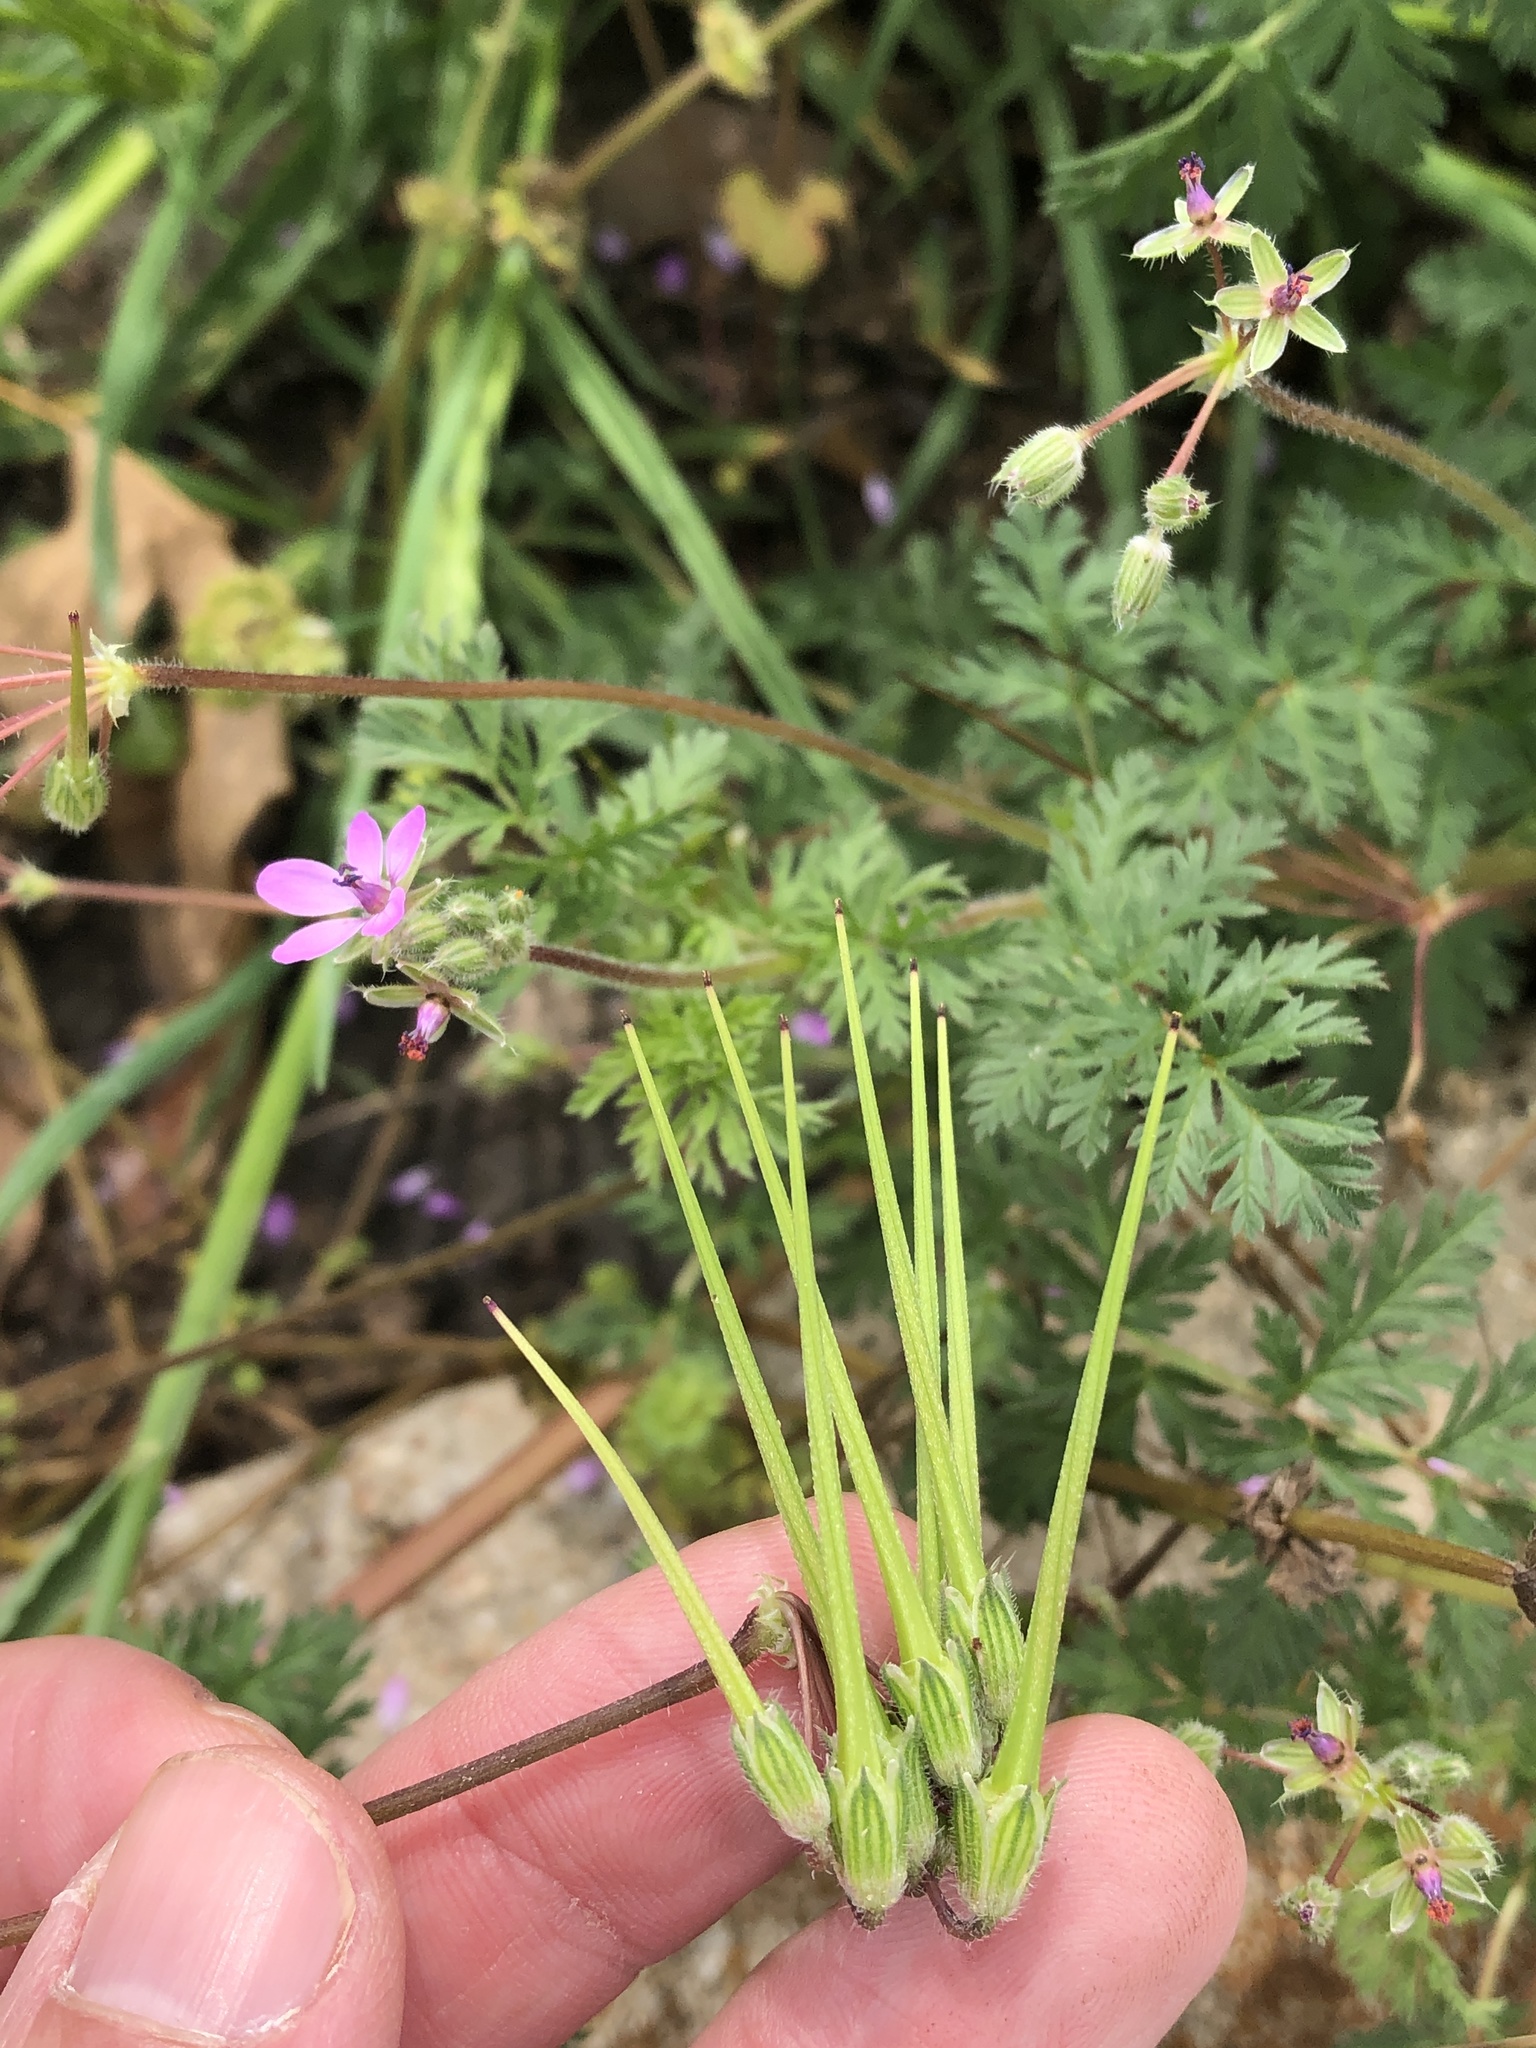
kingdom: Plantae
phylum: Tracheophyta
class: Magnoliopsida
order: Geraniales
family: Geraniaceae
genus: Erodium
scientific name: Erodium cicutarium
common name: Common stork's-bill
